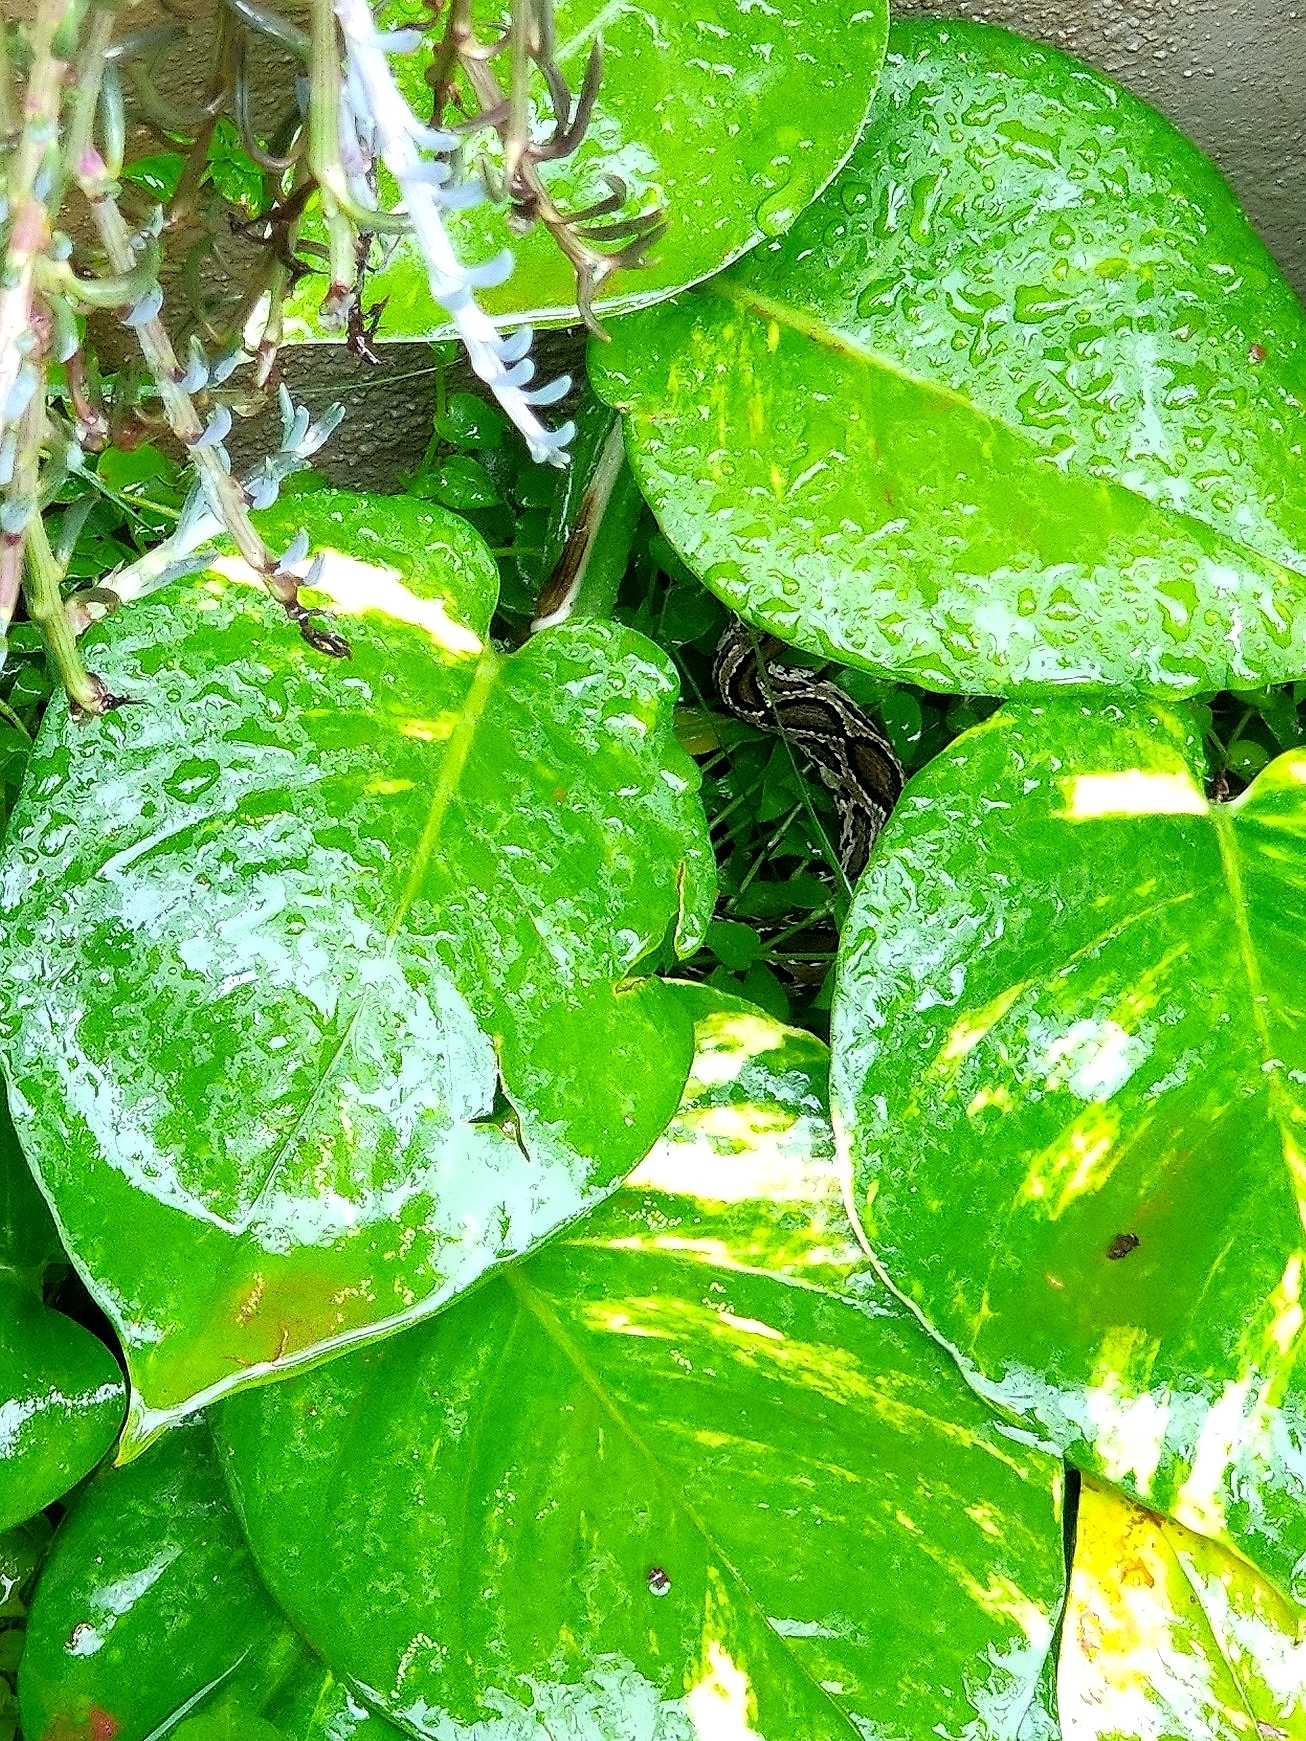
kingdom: Animalia
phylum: Chordata
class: Squamata
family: Viperidae
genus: Daboia
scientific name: Daboia russelii
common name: Western russel’s viper
